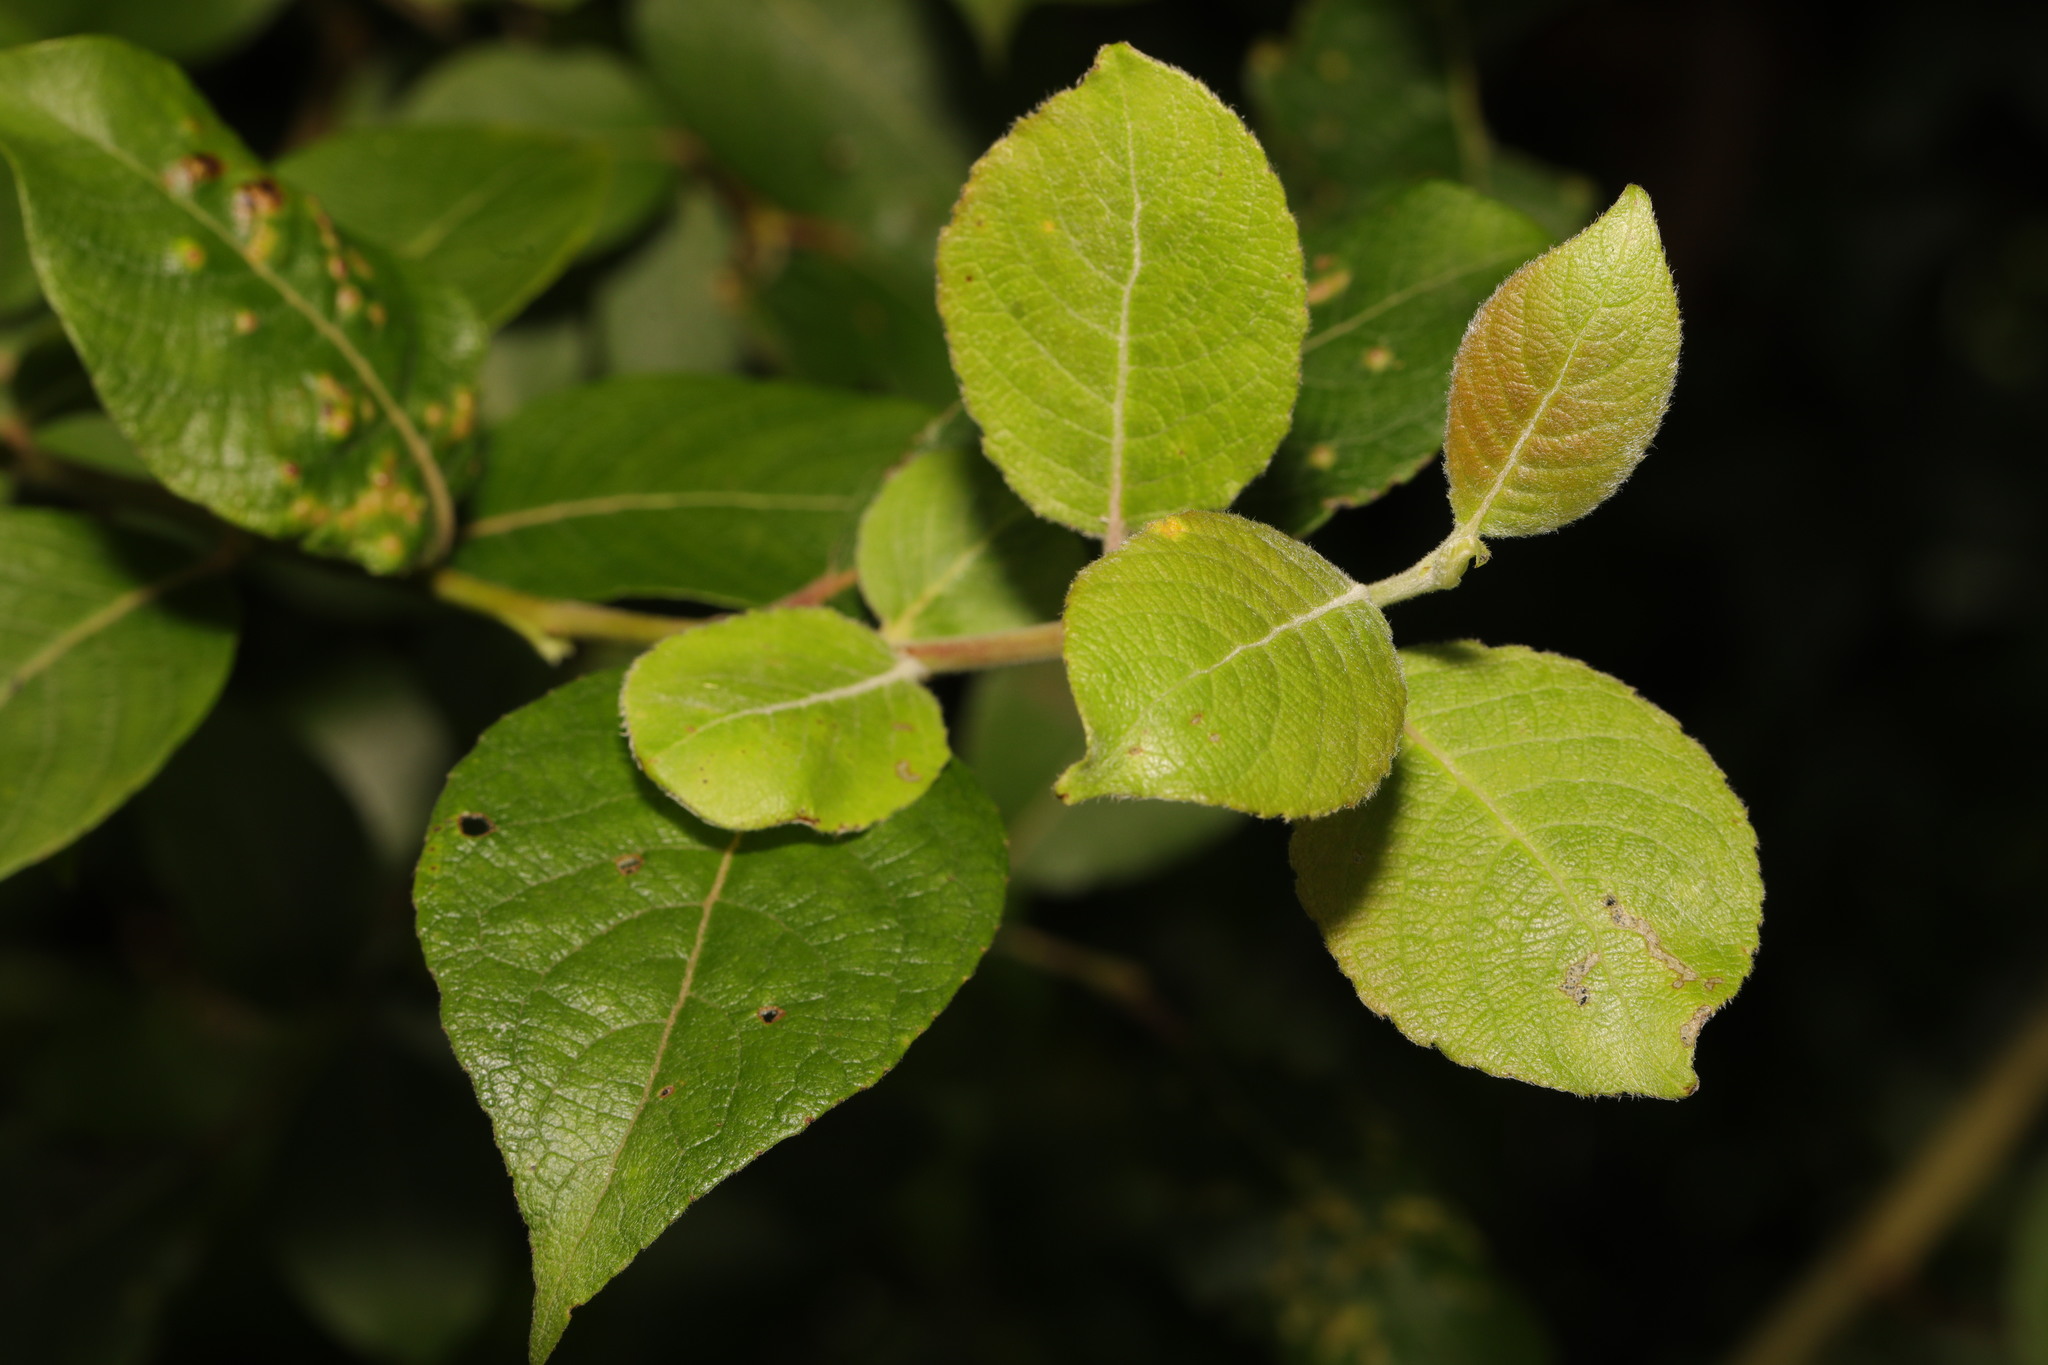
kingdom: Plantae
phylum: Tracheophyta
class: Magnoliopsida
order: Malpighiales
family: Salicaceae
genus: Salix
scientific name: Salix caprea
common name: Goat willow
